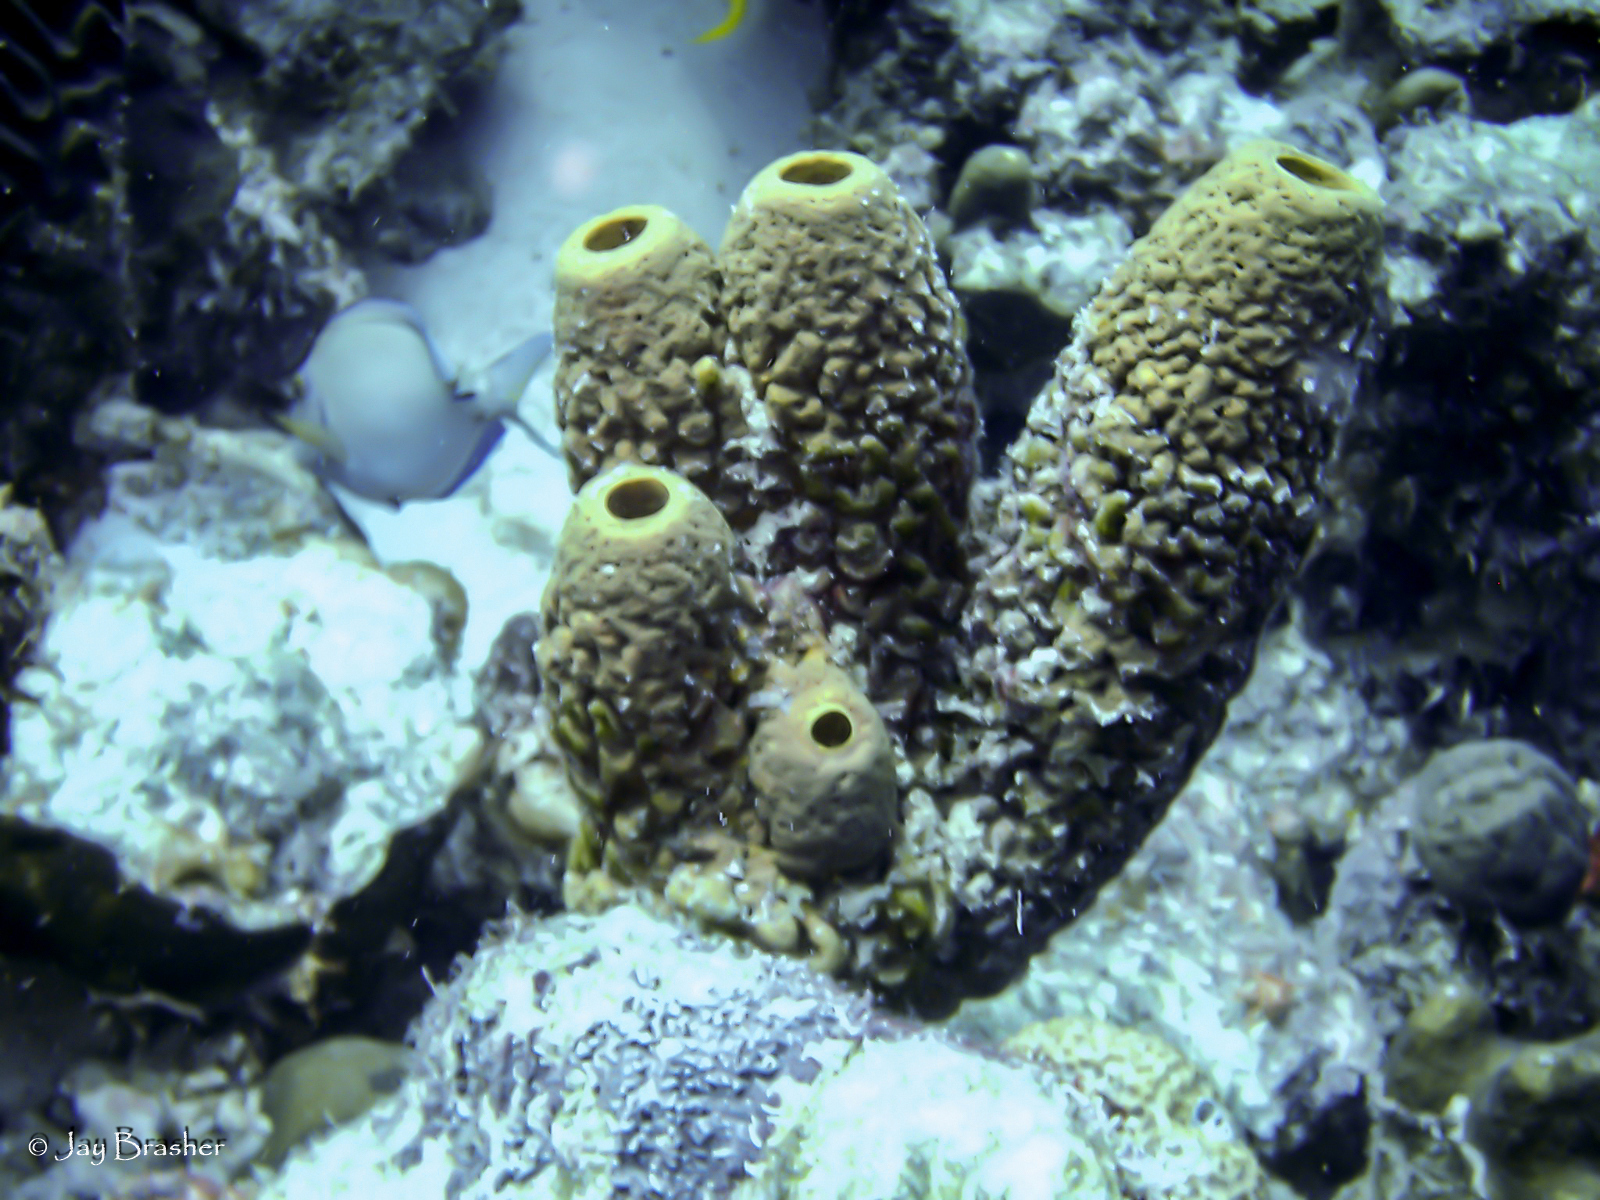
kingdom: Animalia
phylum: Porifera
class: Demospongiae
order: Verongiida
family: Aplysinidae
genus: Aplysina
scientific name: Aplysina archeri
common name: Stove-pipe sponge
